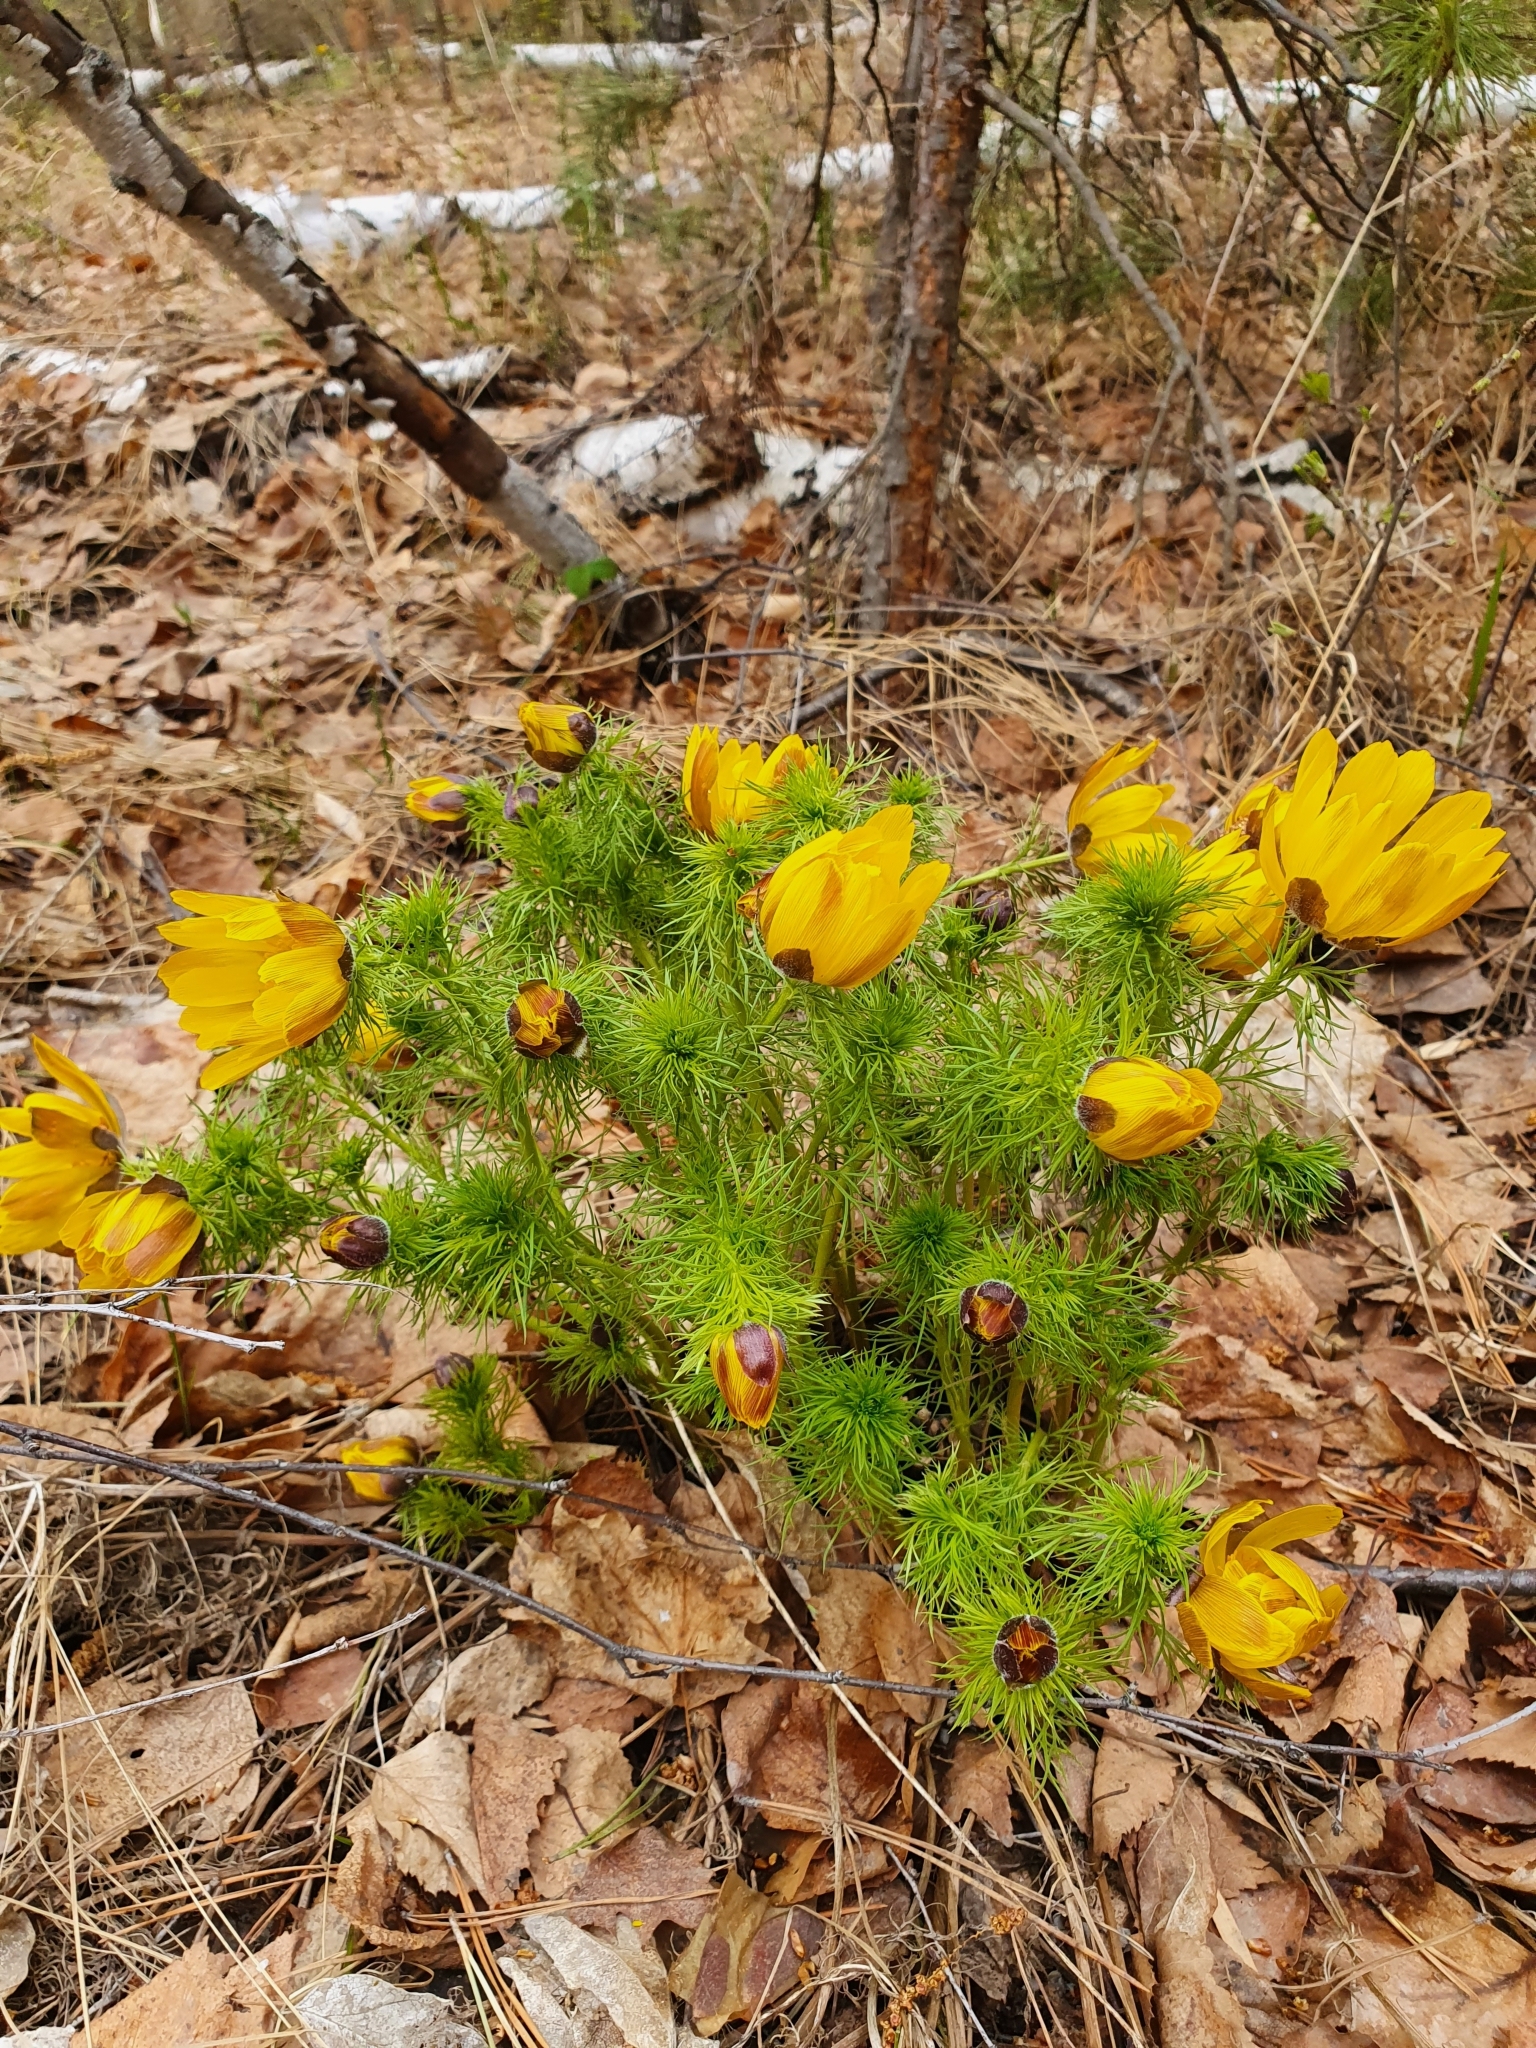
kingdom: Plantae
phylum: Tracheophyta
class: Magnoliopsida
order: Ranunculales
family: Ranunculaceae
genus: Adonis
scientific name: Adonis vernalis
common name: Yellow pheasants-eye
